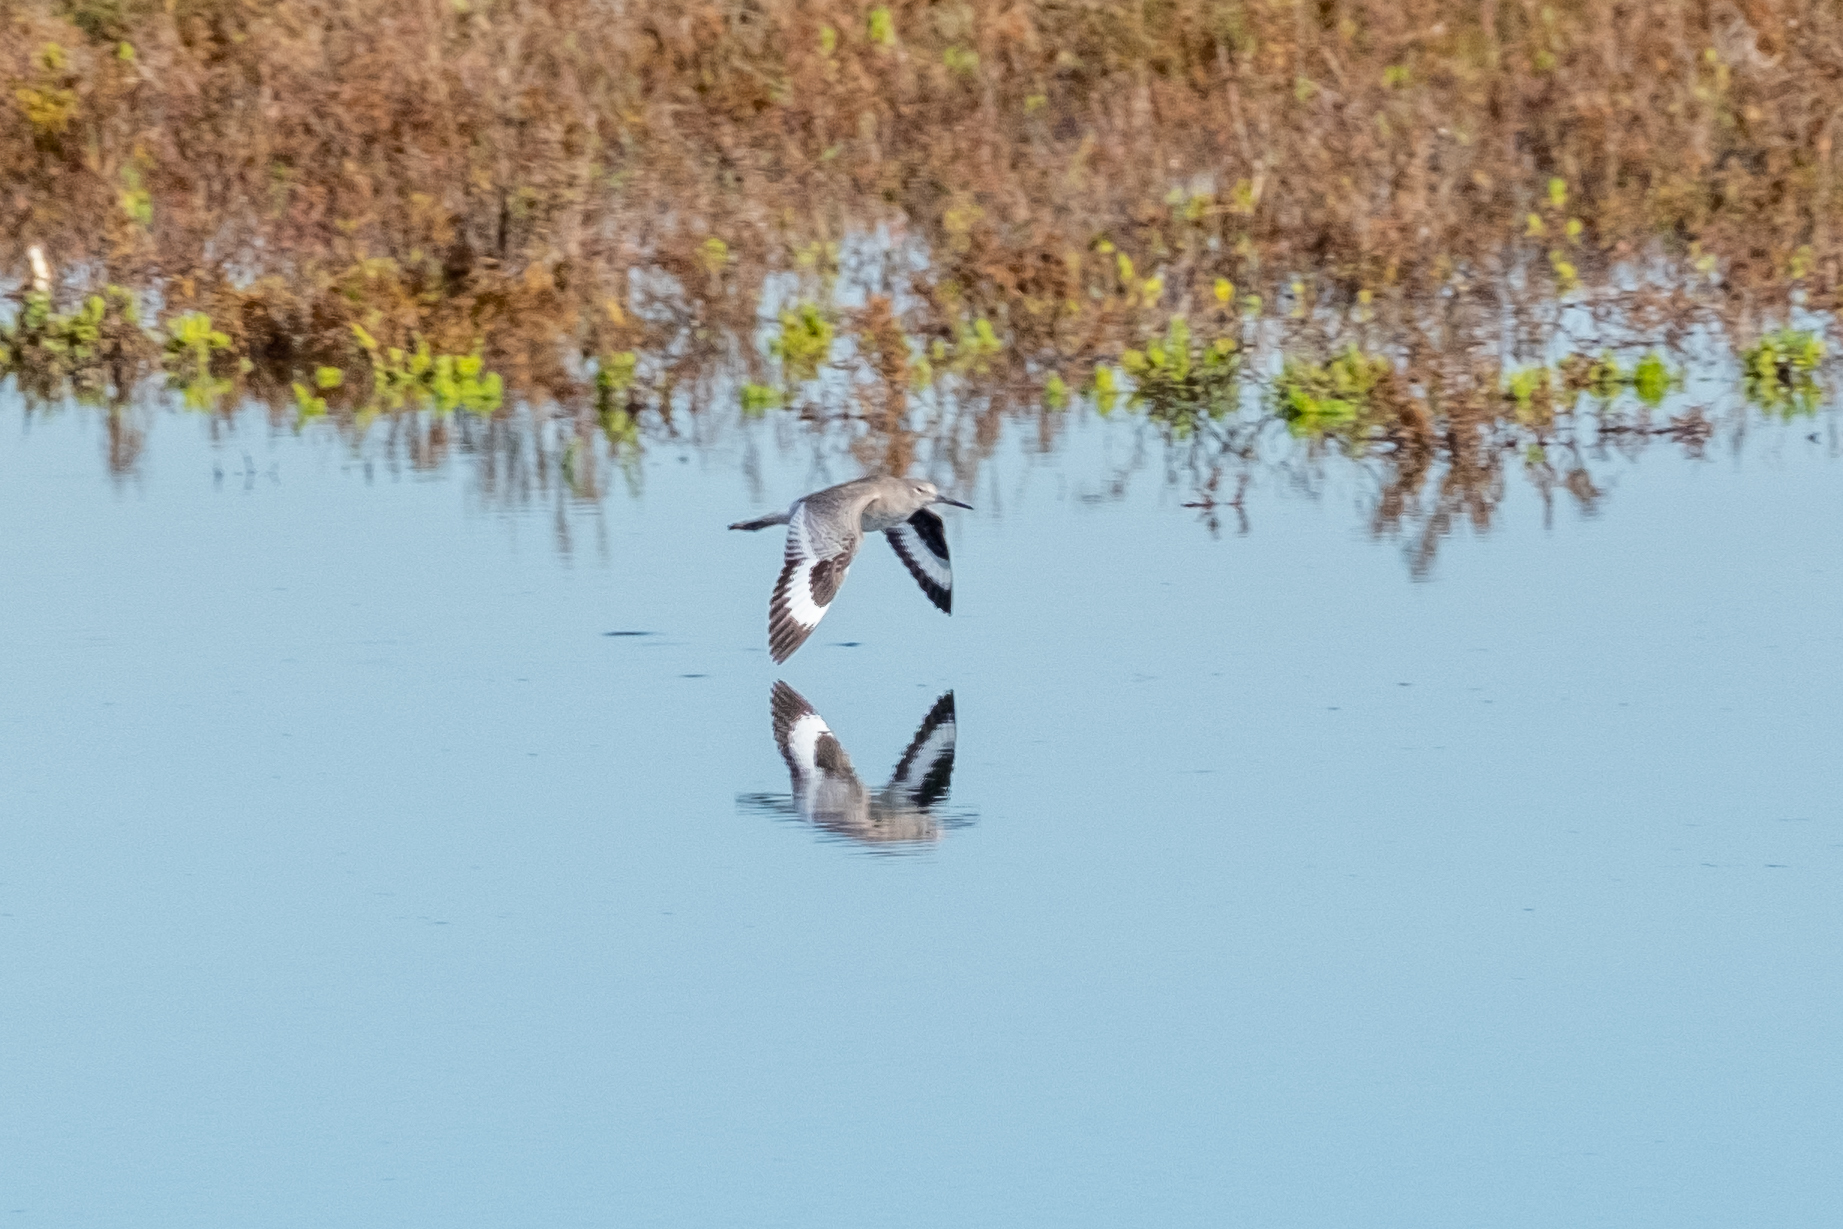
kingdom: Animalia
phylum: Chordata
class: Aves
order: Charadriiformes
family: Scolopacidae
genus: Tringa
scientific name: Tringa semipalmata
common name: Willet
